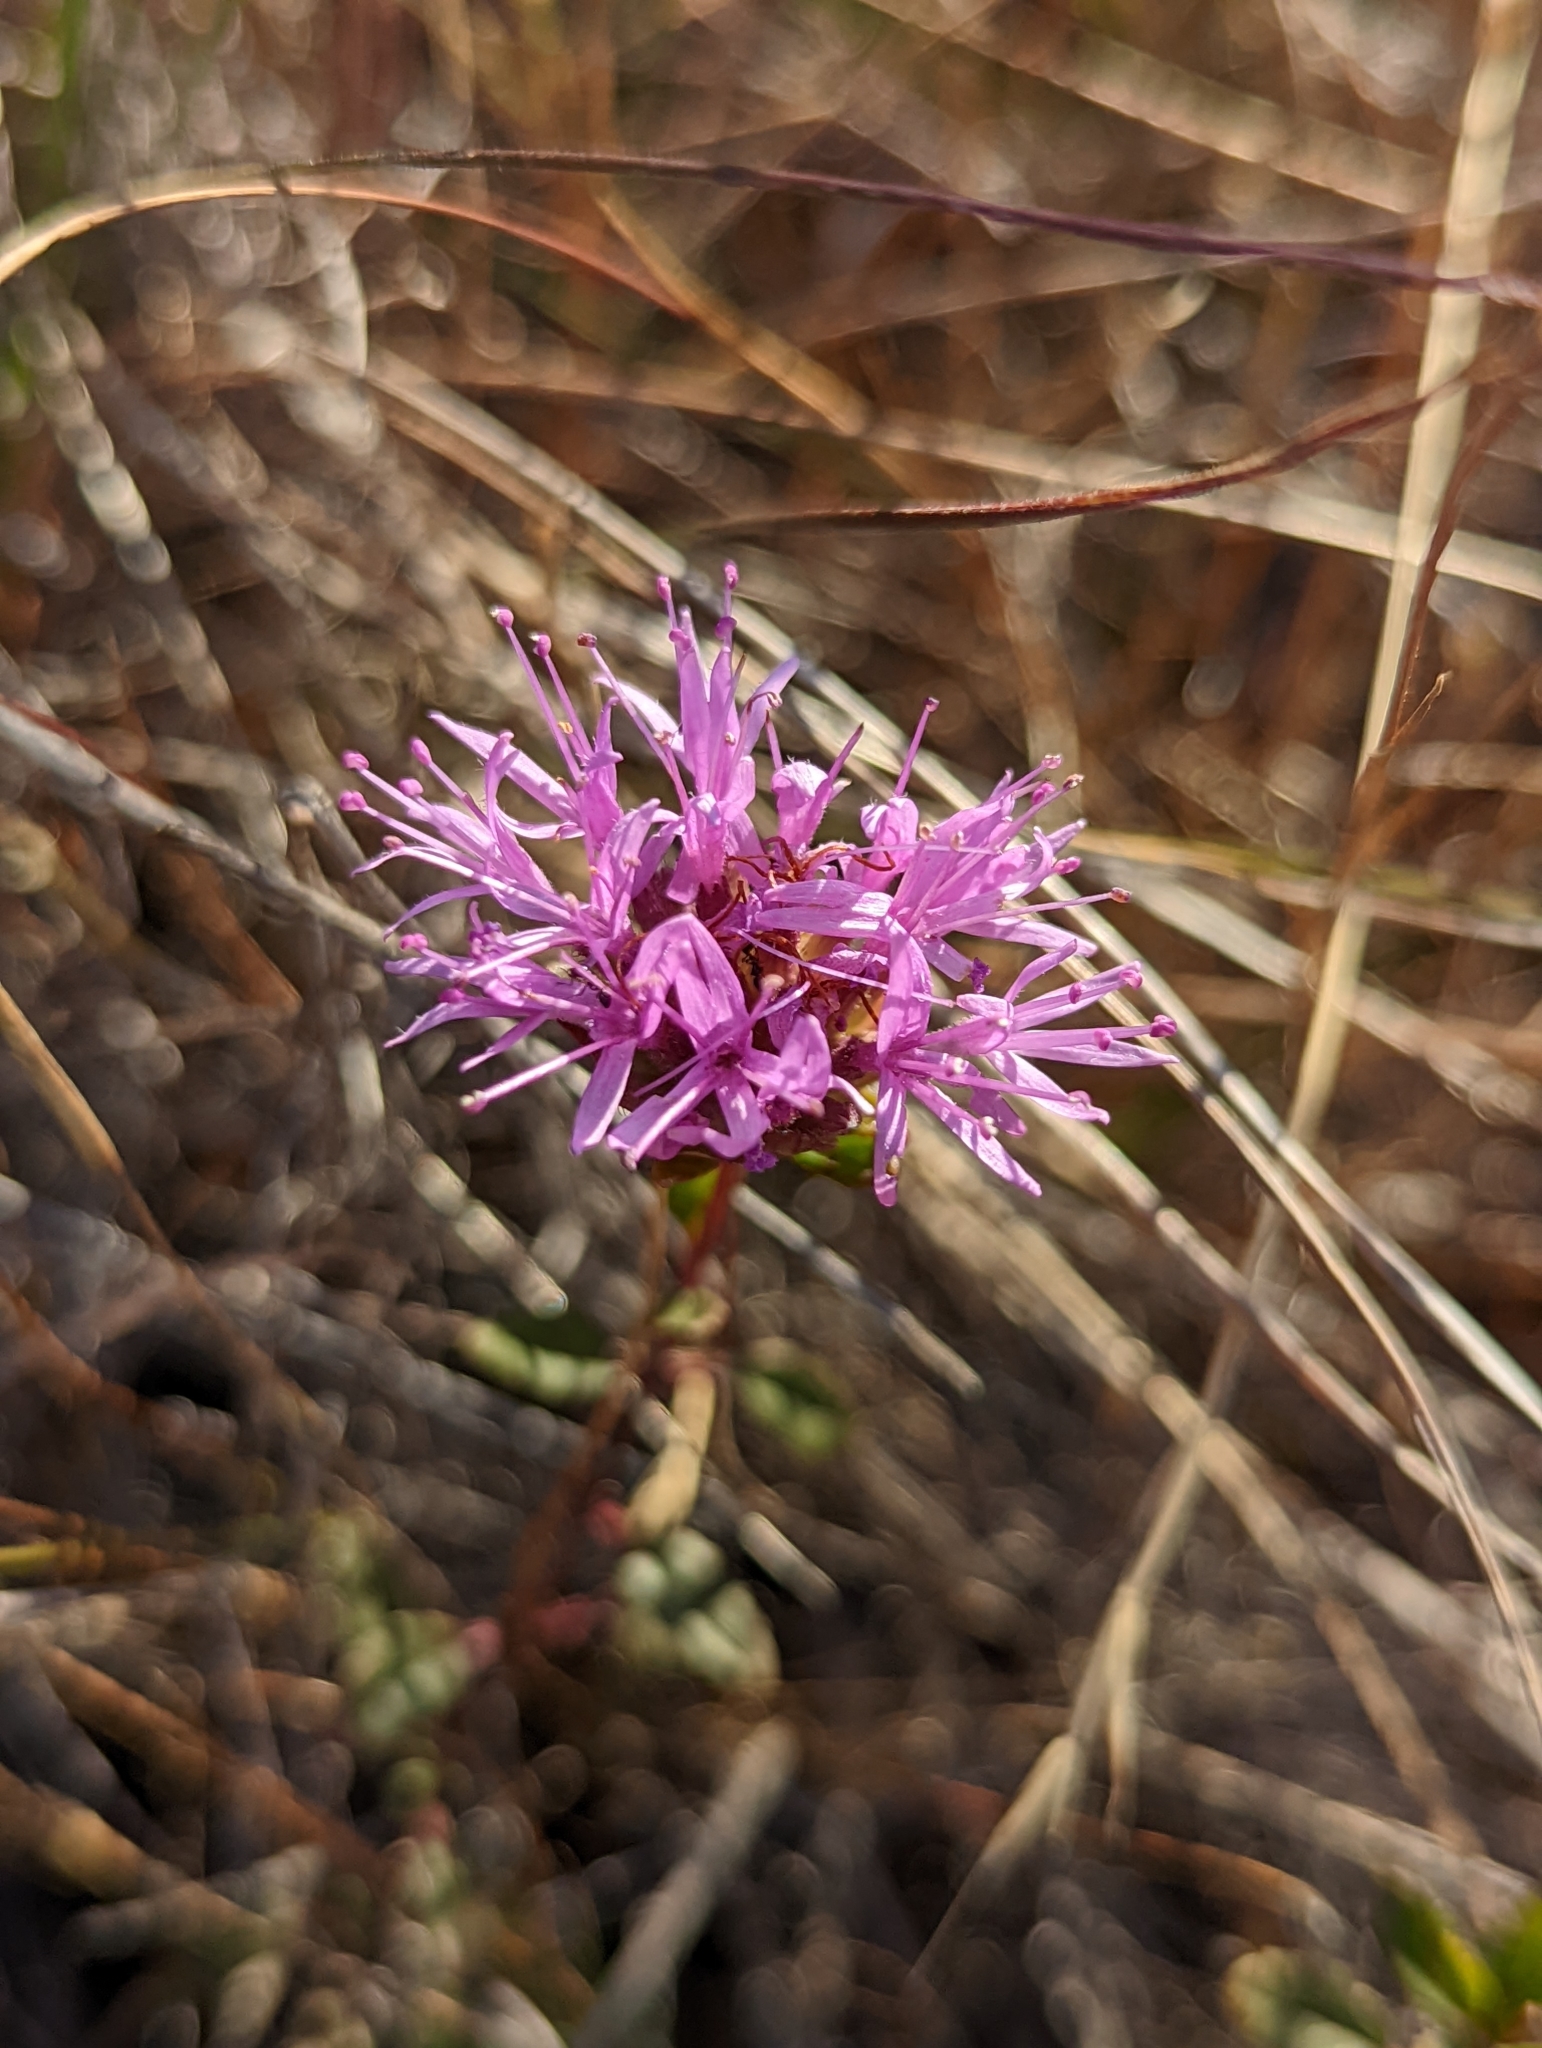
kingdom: Plantae
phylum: Tracheophyta
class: Magnoliopsida
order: Lamiales
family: Lamiaceae
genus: Monardella
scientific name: Monardella purpurea
